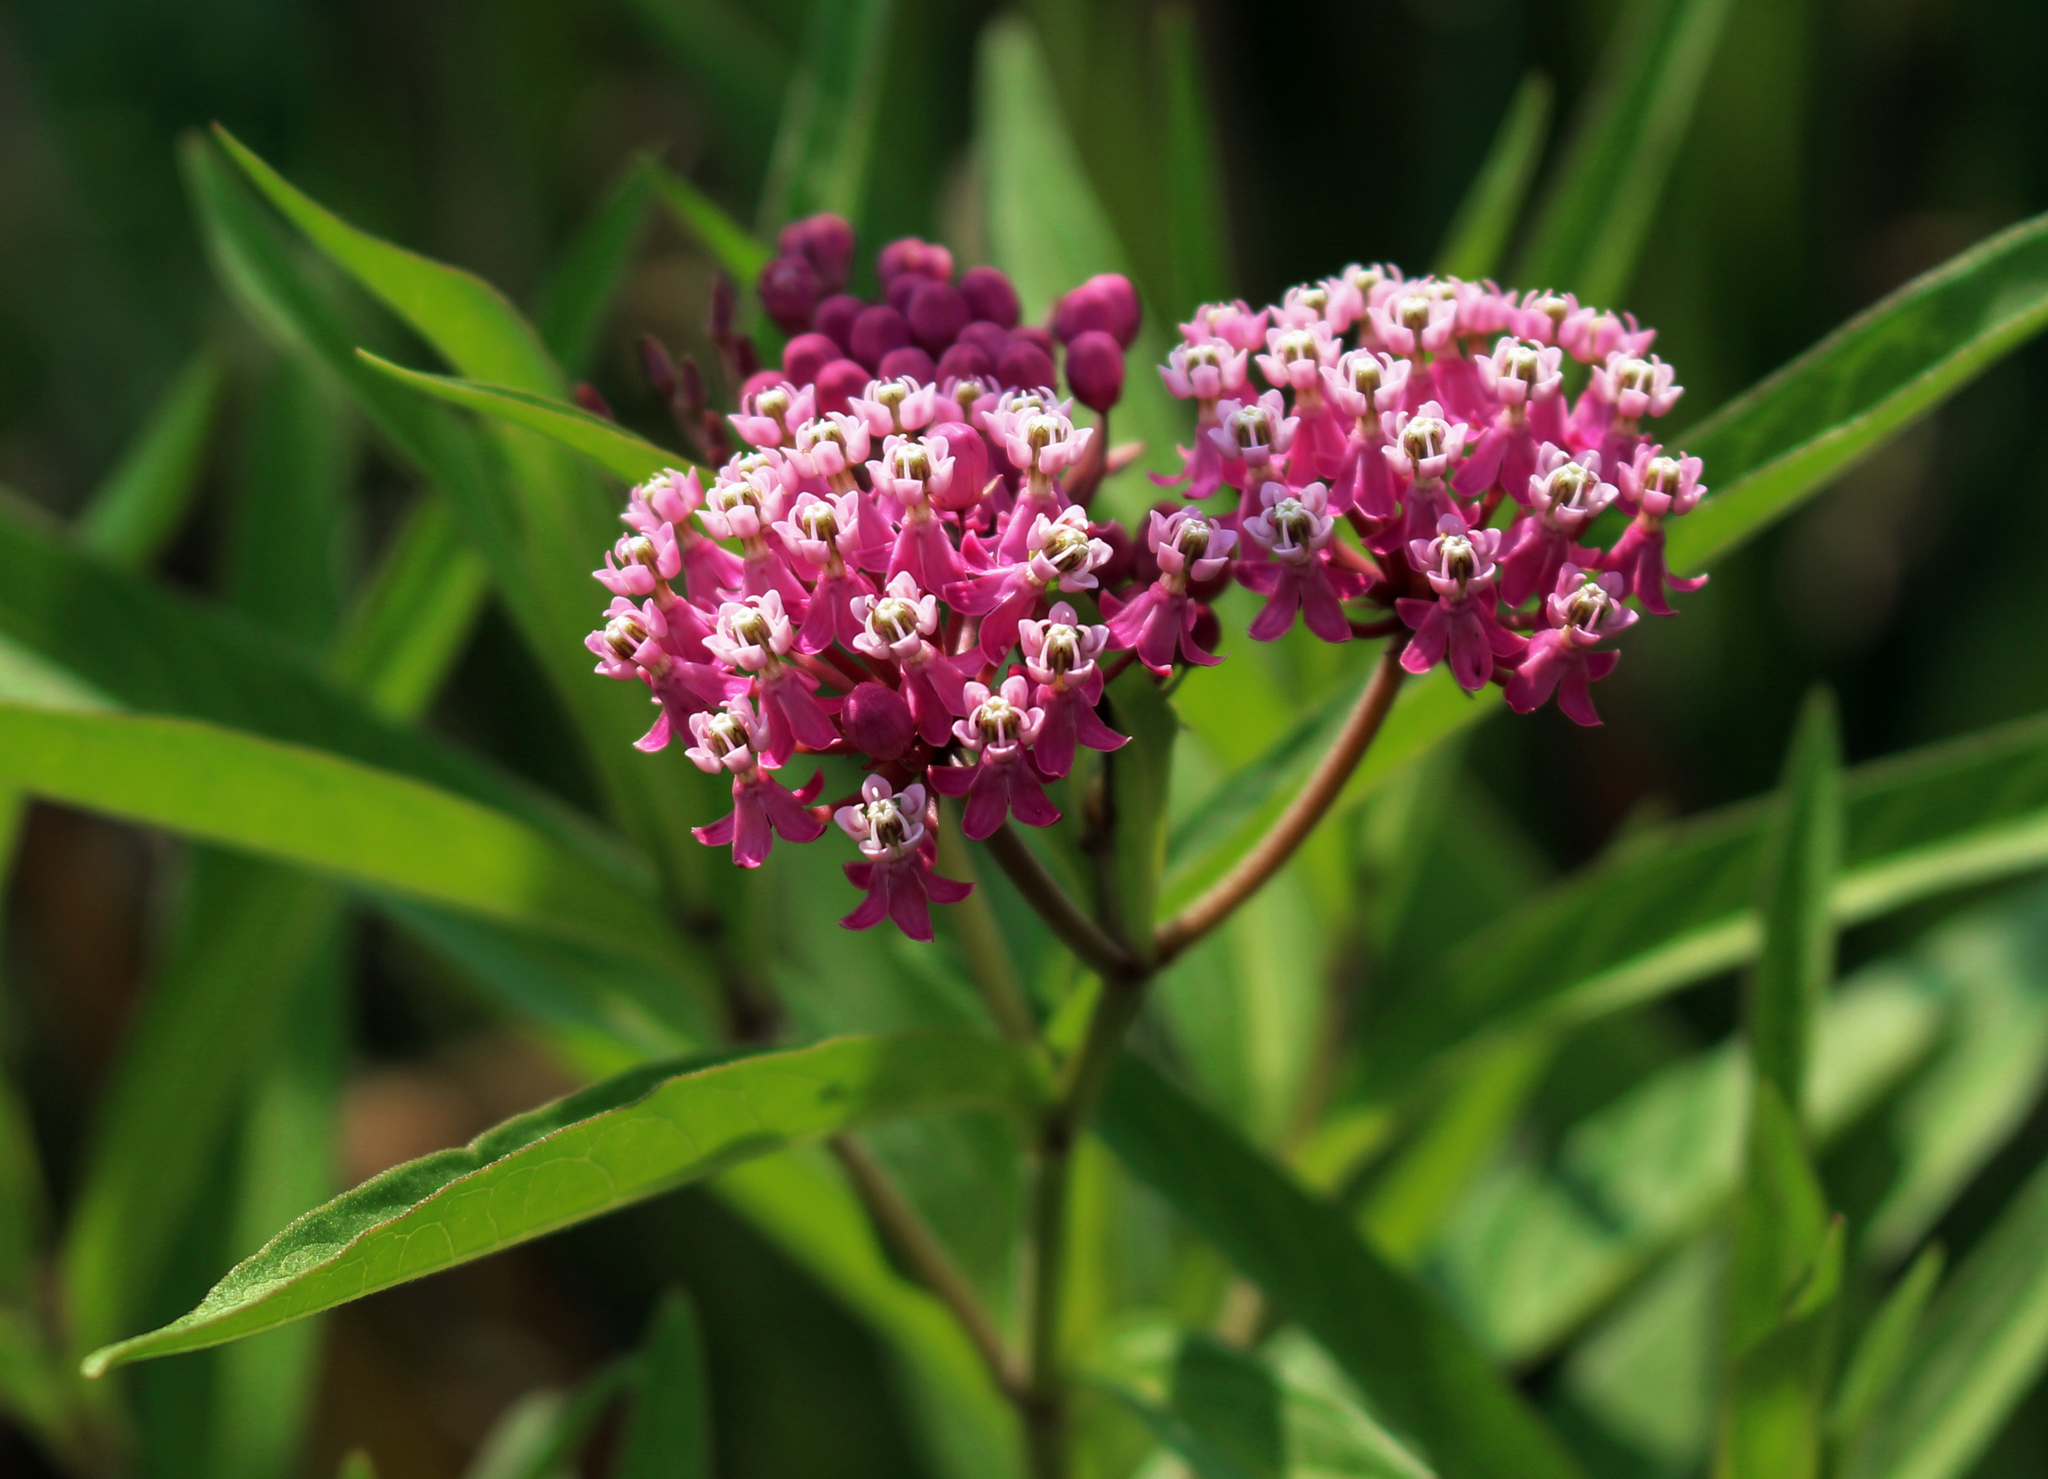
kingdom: Plantae
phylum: Tracheophyta
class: Magnoliopsida
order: Gentianales
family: Apocynaceae
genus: Asclepias
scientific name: Asclepias incarnata
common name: Swamp milkweed
